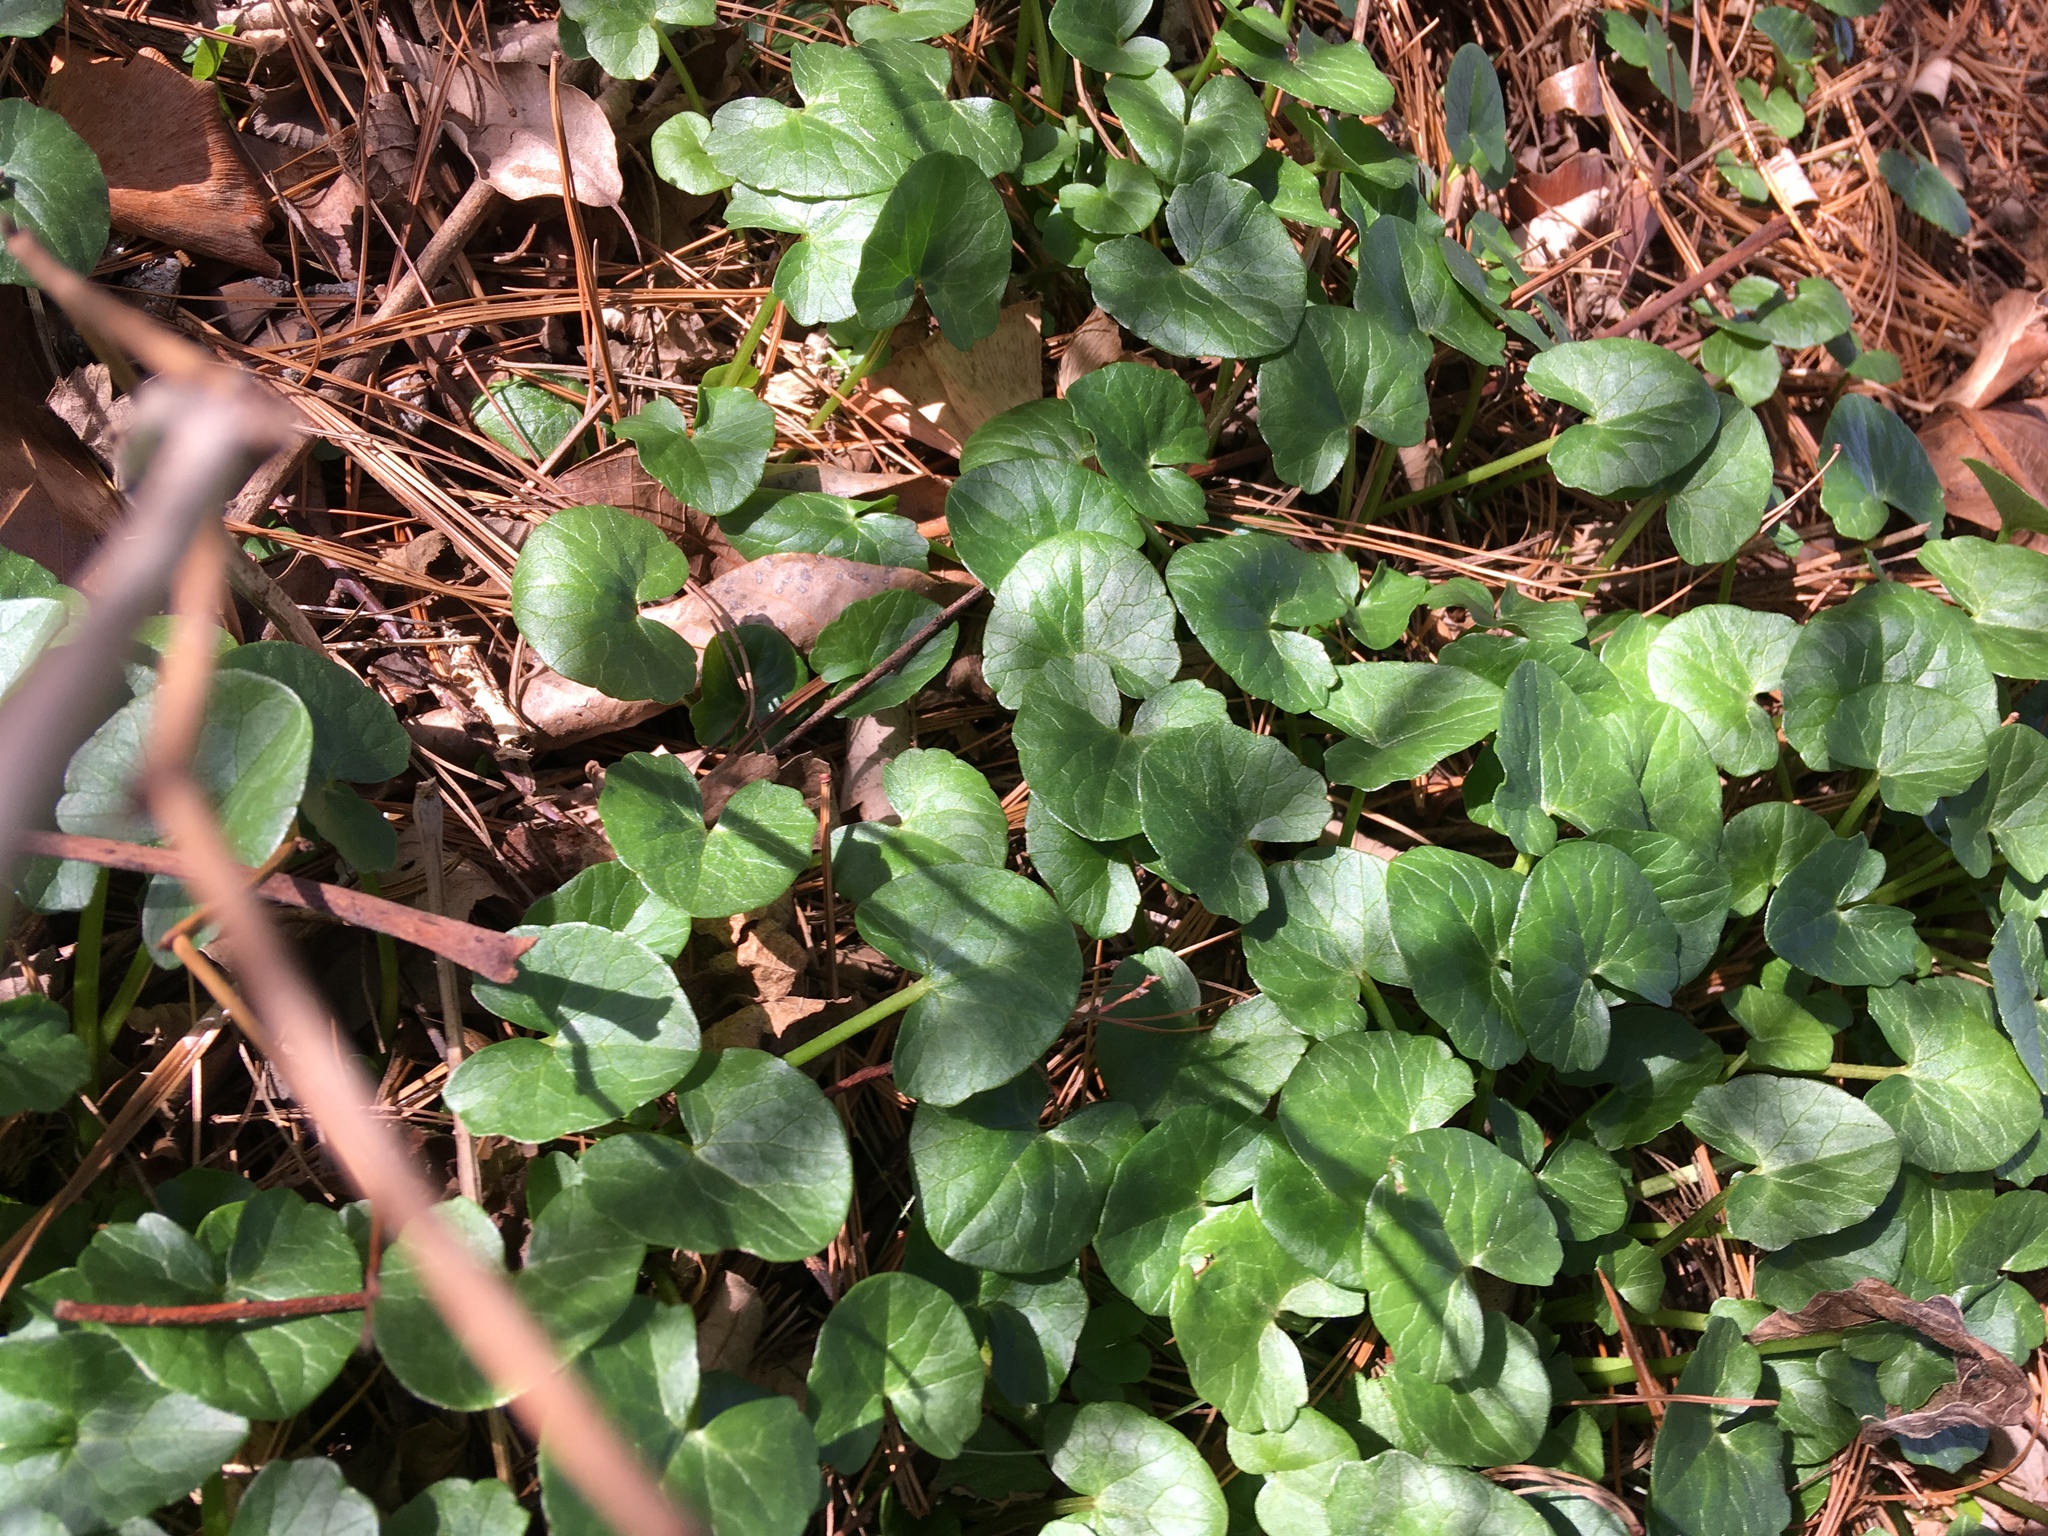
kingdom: Plantae
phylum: Tracheophyta
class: Magnoliopsida
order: Ranunculales
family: Ranunculaceae
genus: Ficaria
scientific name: Ficaria verna
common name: Lesser celandine
